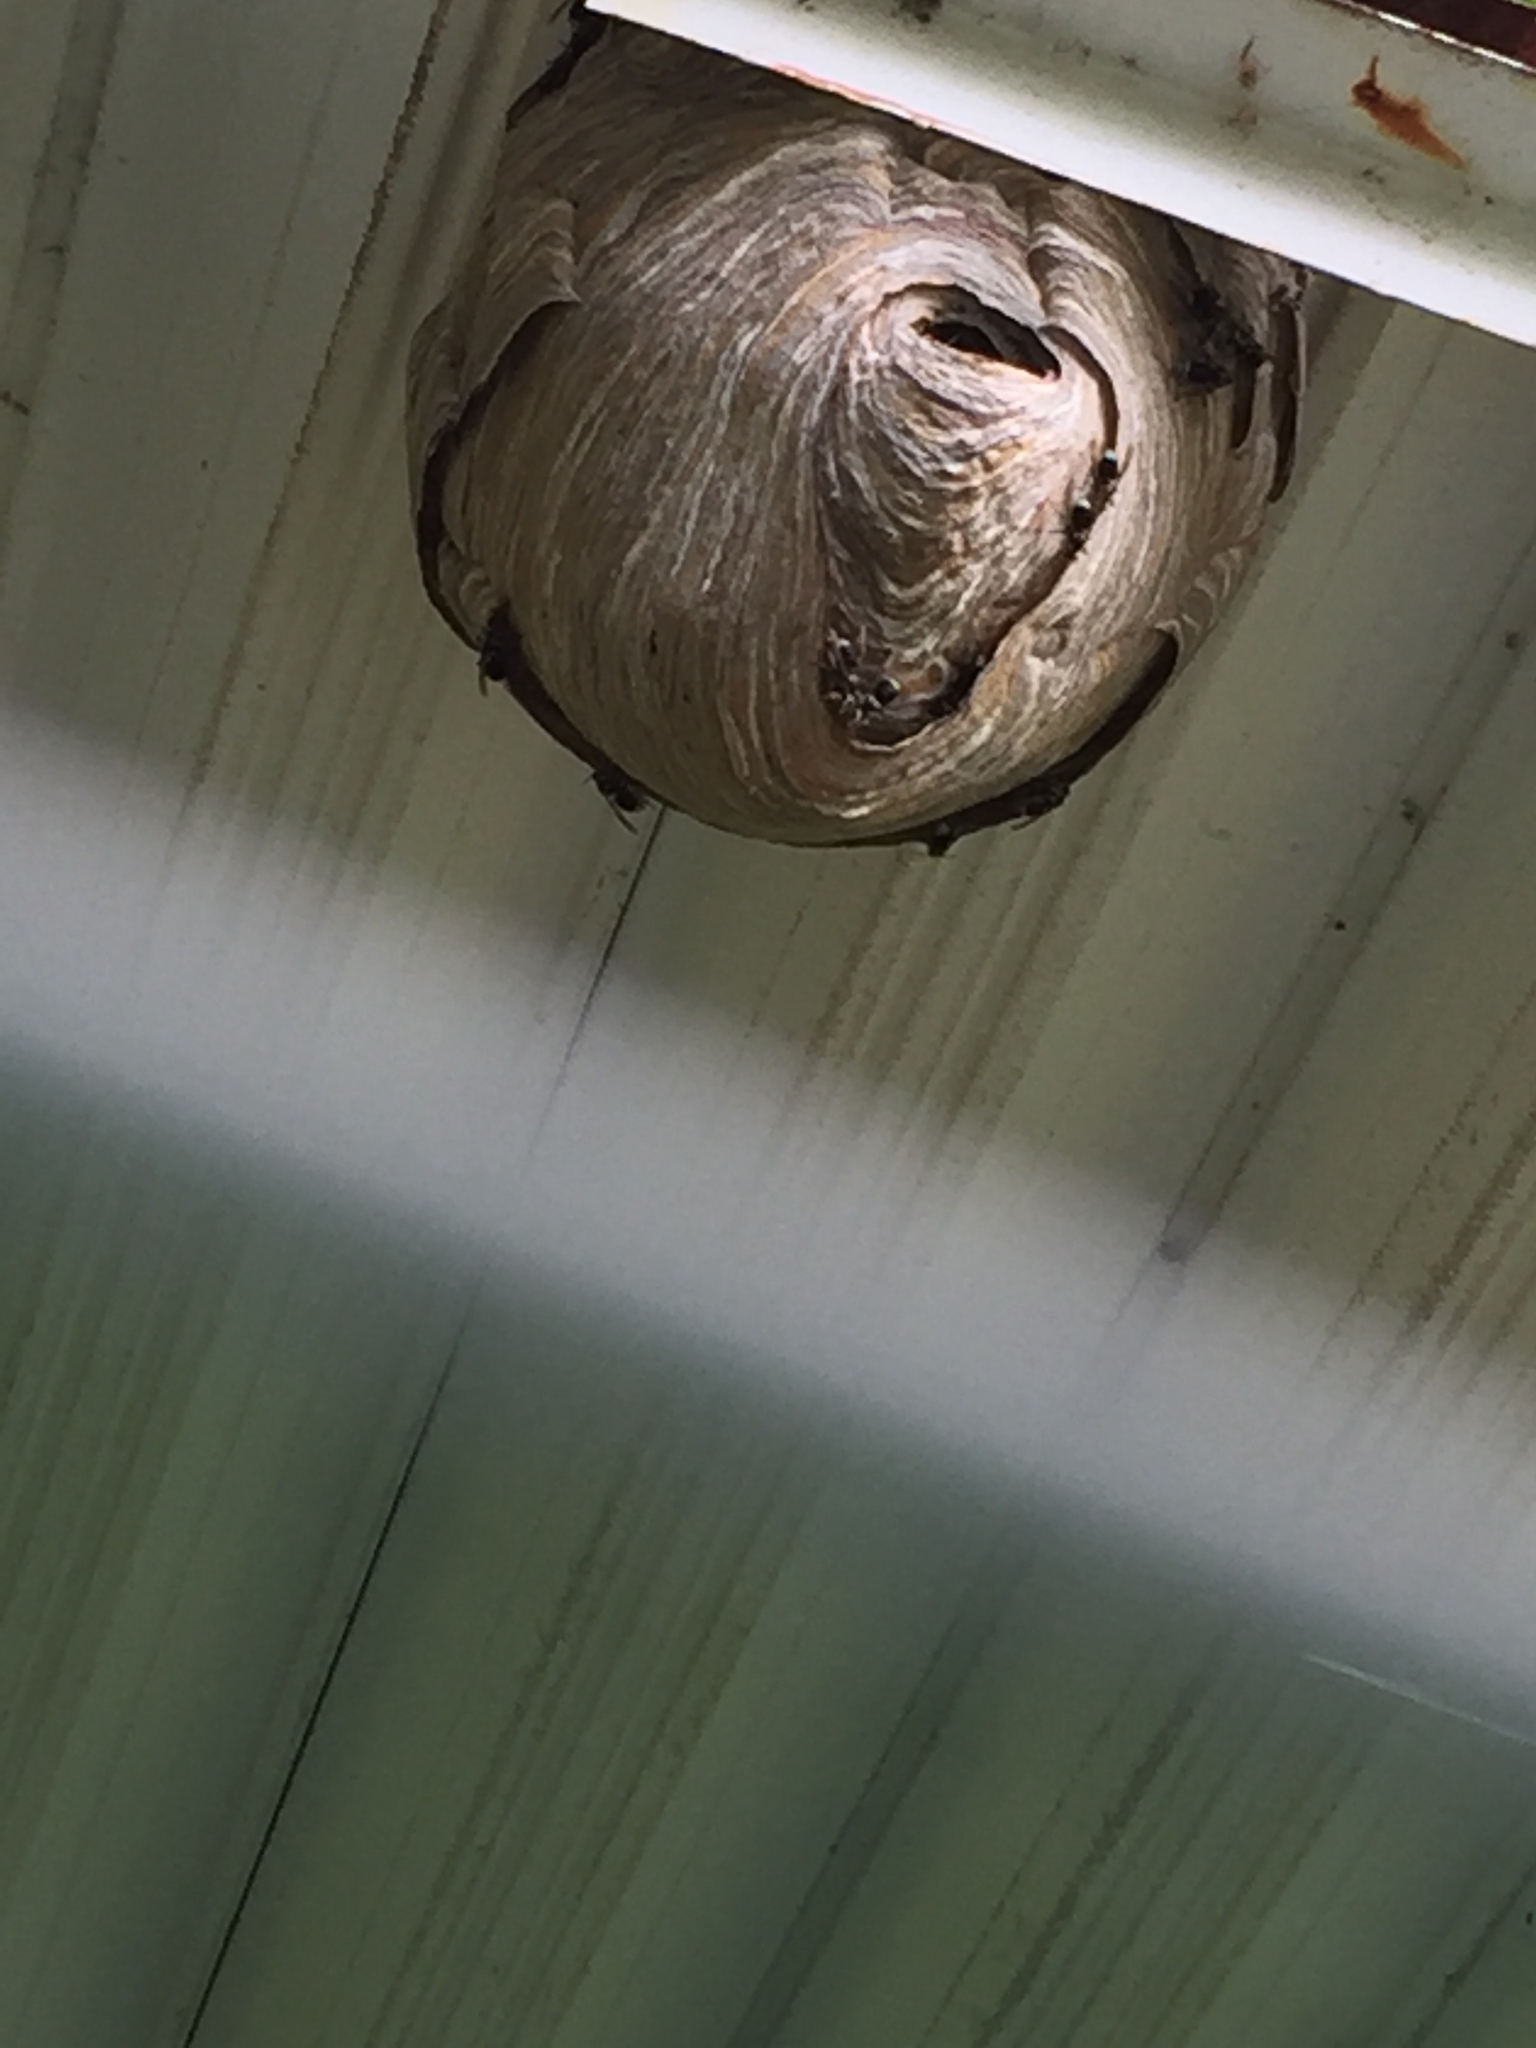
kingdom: Animalia
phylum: Arthropoda
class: Insecta
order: Hymenoptera
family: Vespidae
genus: Dolichovespula
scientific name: Dolichovespula maculata
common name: Bald-faced hornet
